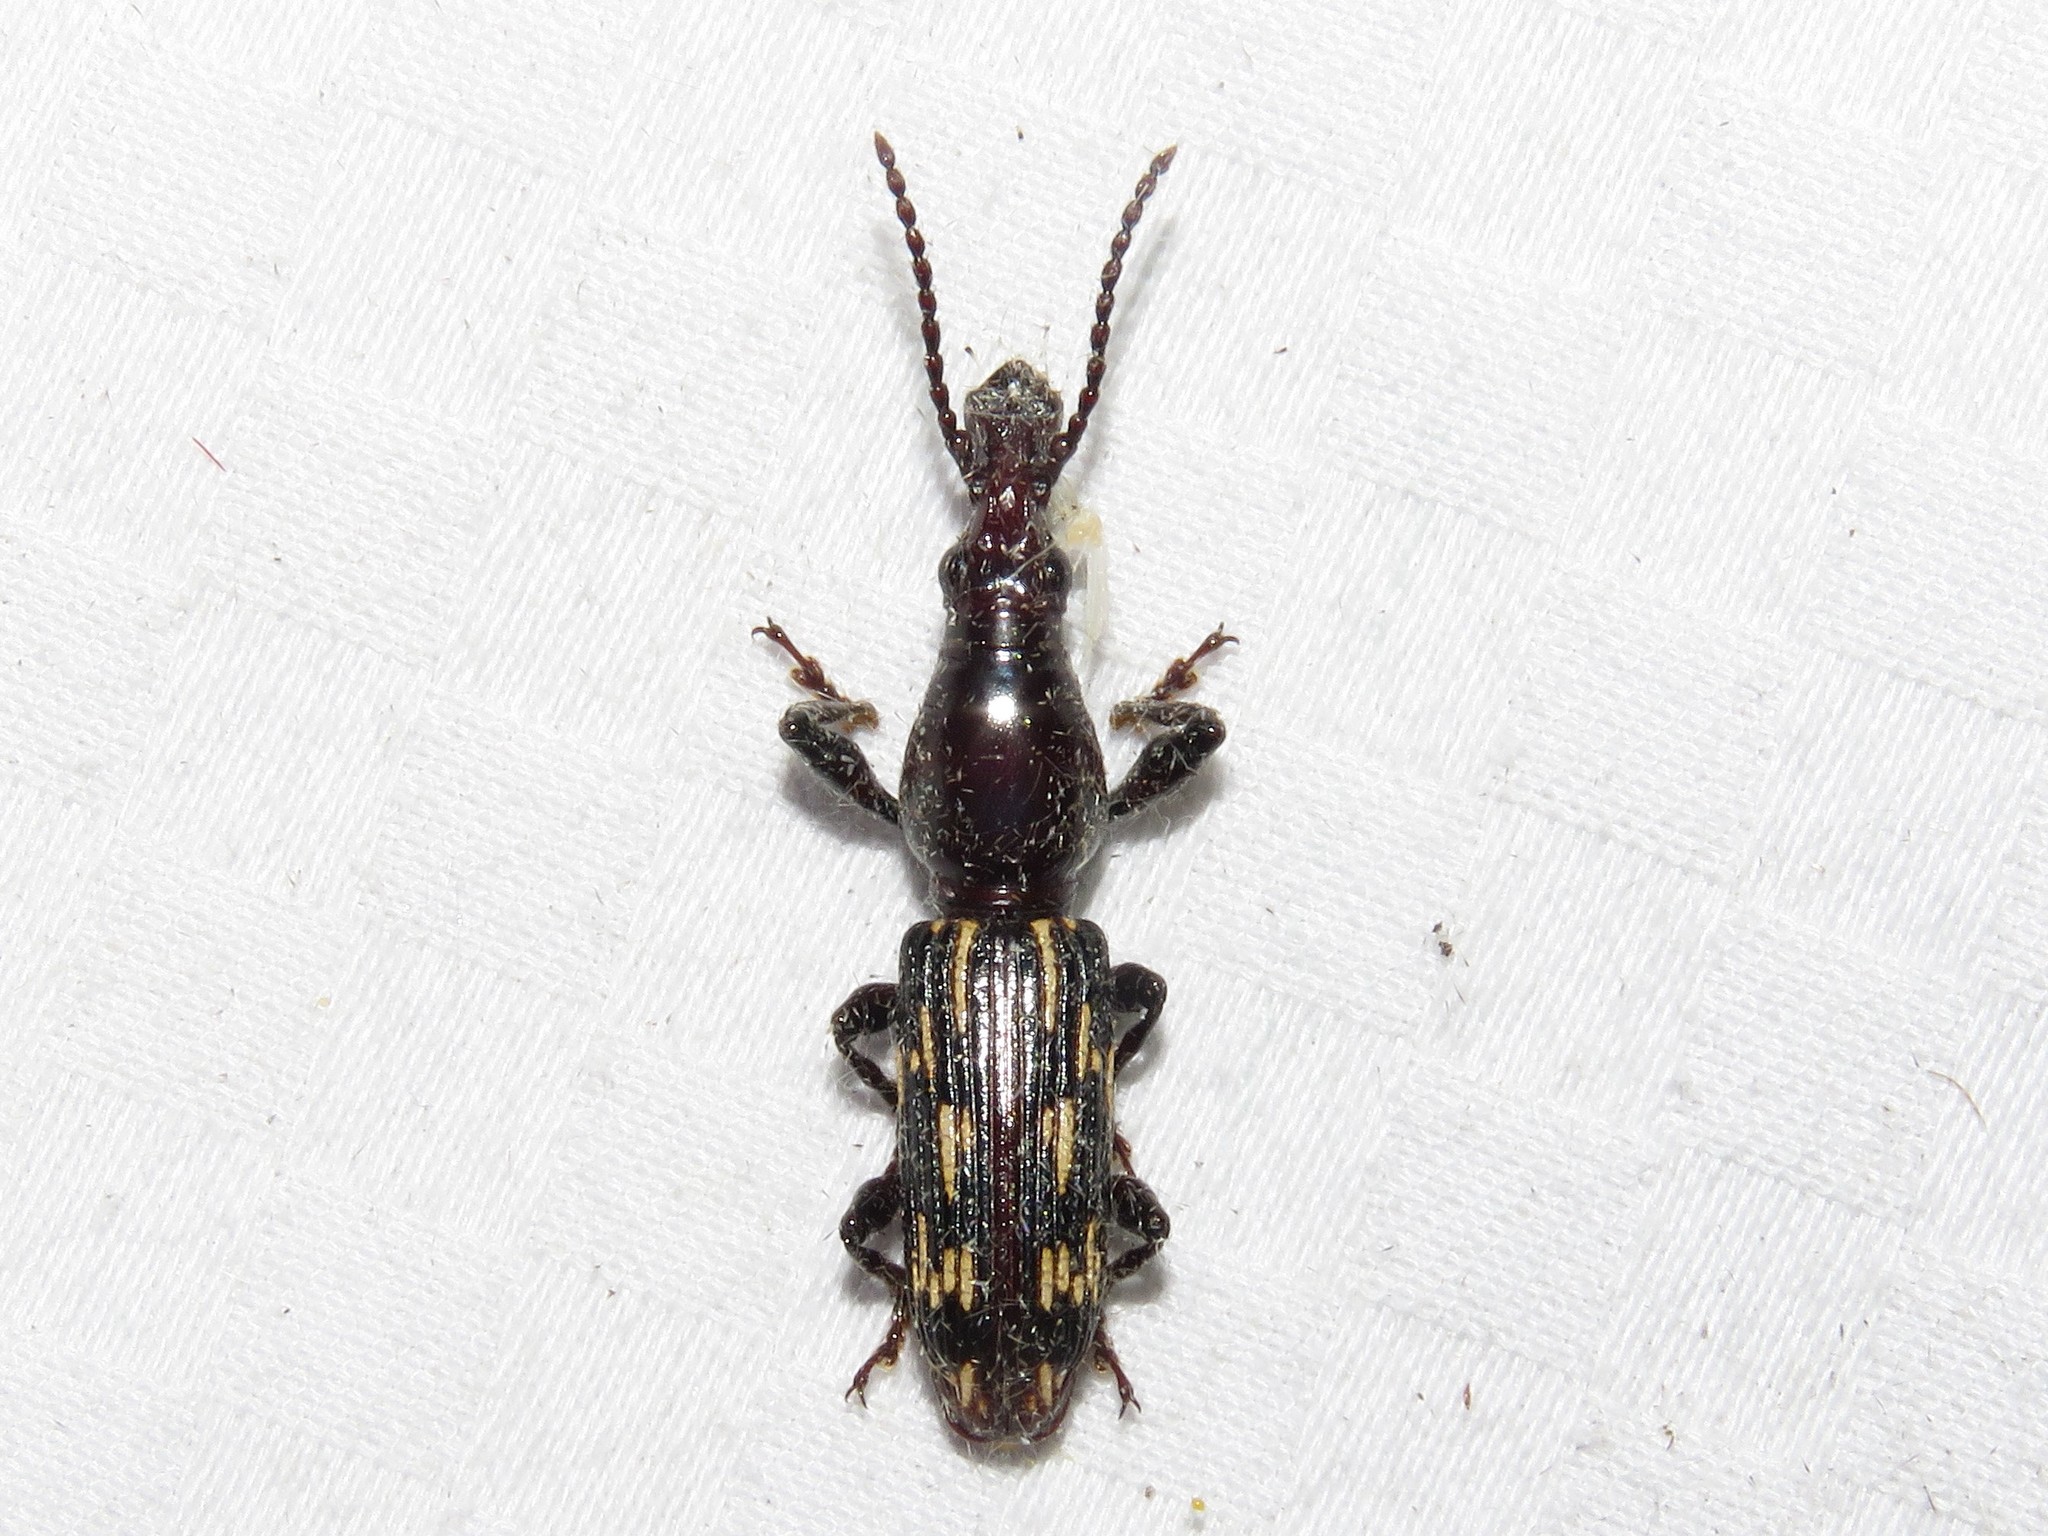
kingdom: Animalia
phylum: Arthropoda
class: Insecta
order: Coleoptera
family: Brentidae
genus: Arrenodes
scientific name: Arrenodes minutus
